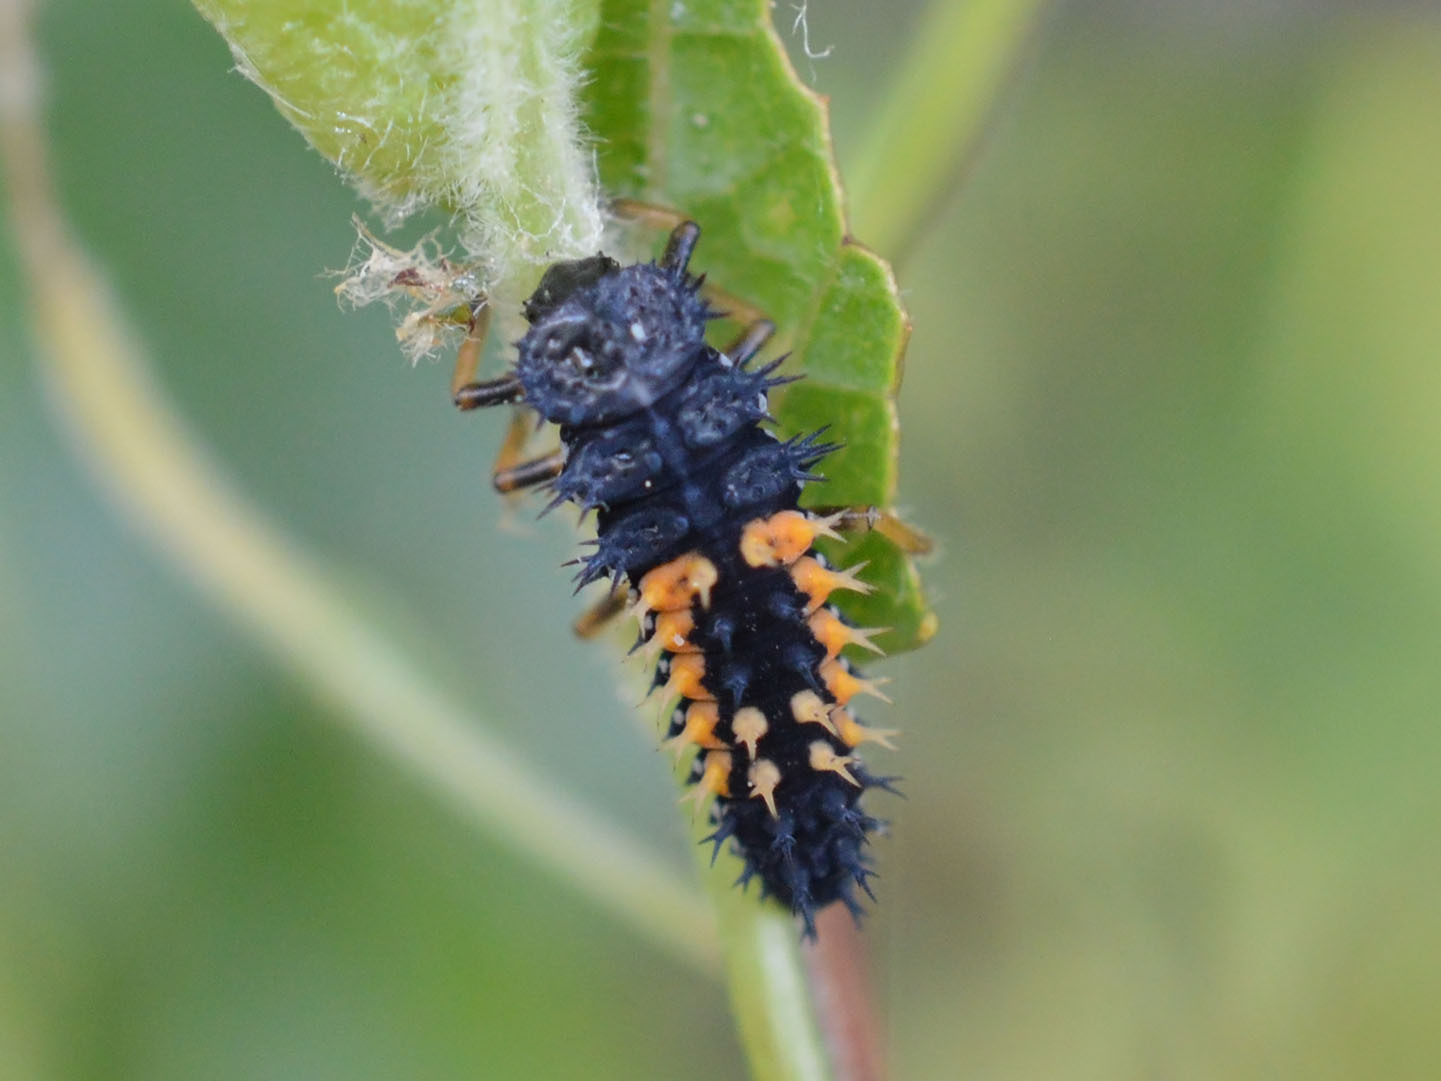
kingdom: Animalia
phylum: Arthropoda
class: Insecta
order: Coleoptera
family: Coccinellidae
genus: Harmonia
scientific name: Harmonia axyridis
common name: Harlequin ladybird
